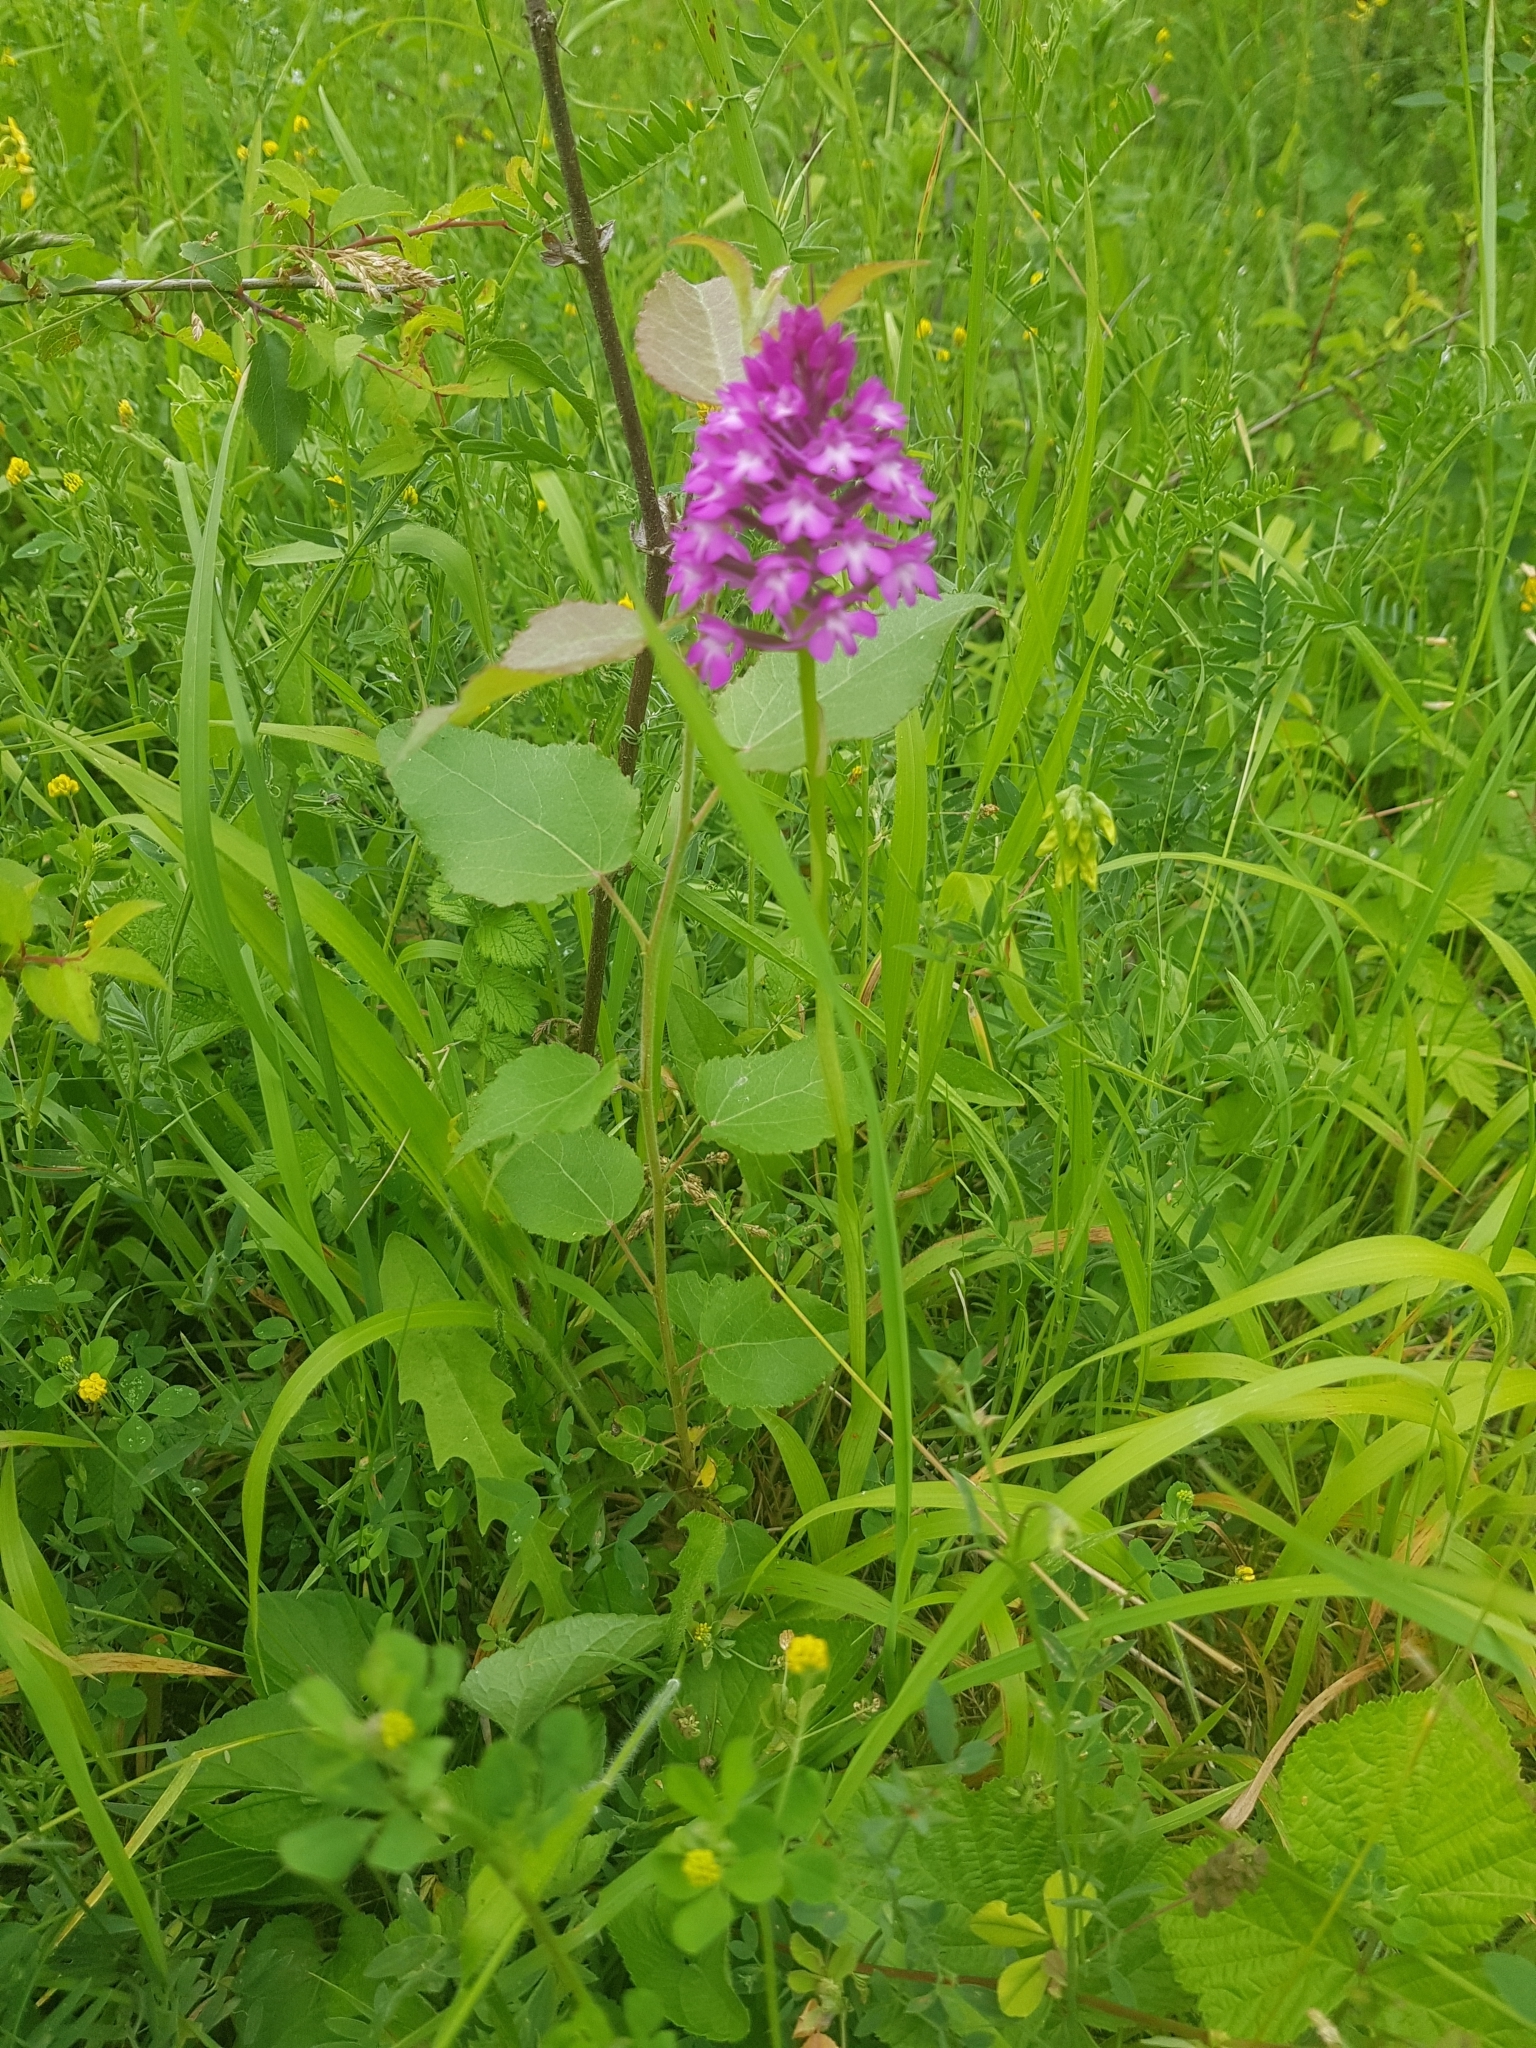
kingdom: Plantae
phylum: Tracheophyta
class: Liliopsida
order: Asparagales
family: Orchidaceae
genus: Anacamptis
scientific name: Anacamptis pyramidalis
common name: Pyramidal orchid
